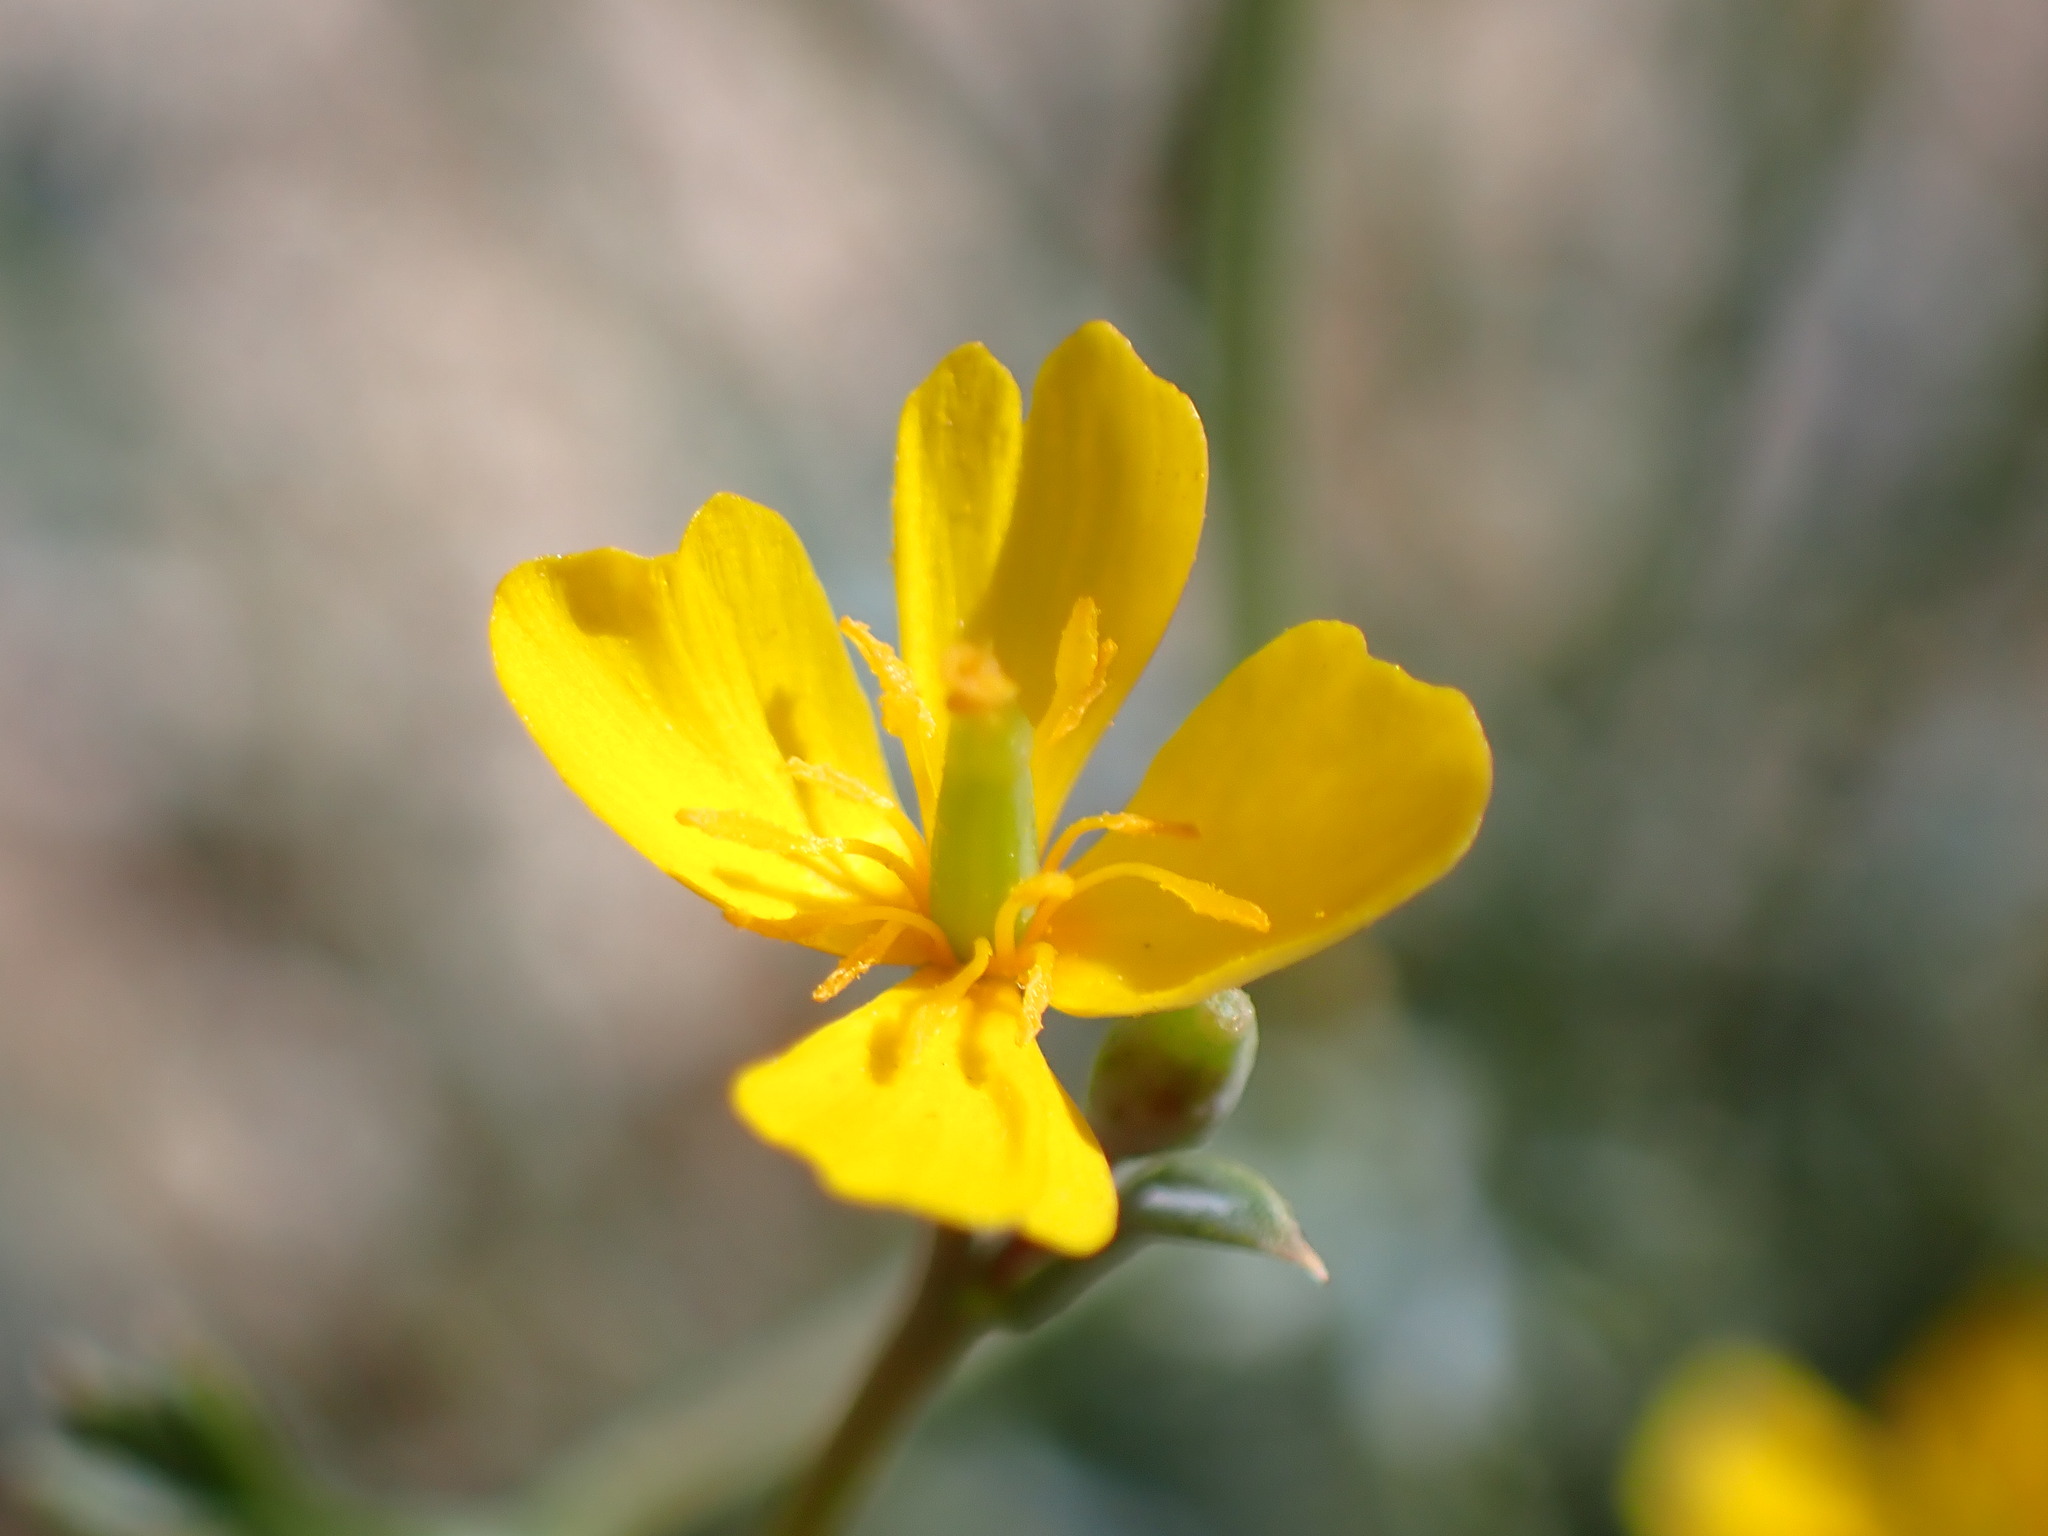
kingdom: Plantae
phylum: Tracheophyta
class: Magnoliopsida
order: Ranunculales
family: Papaveraceae
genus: Eschscholzia
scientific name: Eschscholzia minutiflora
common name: Small-flower california-poppy
